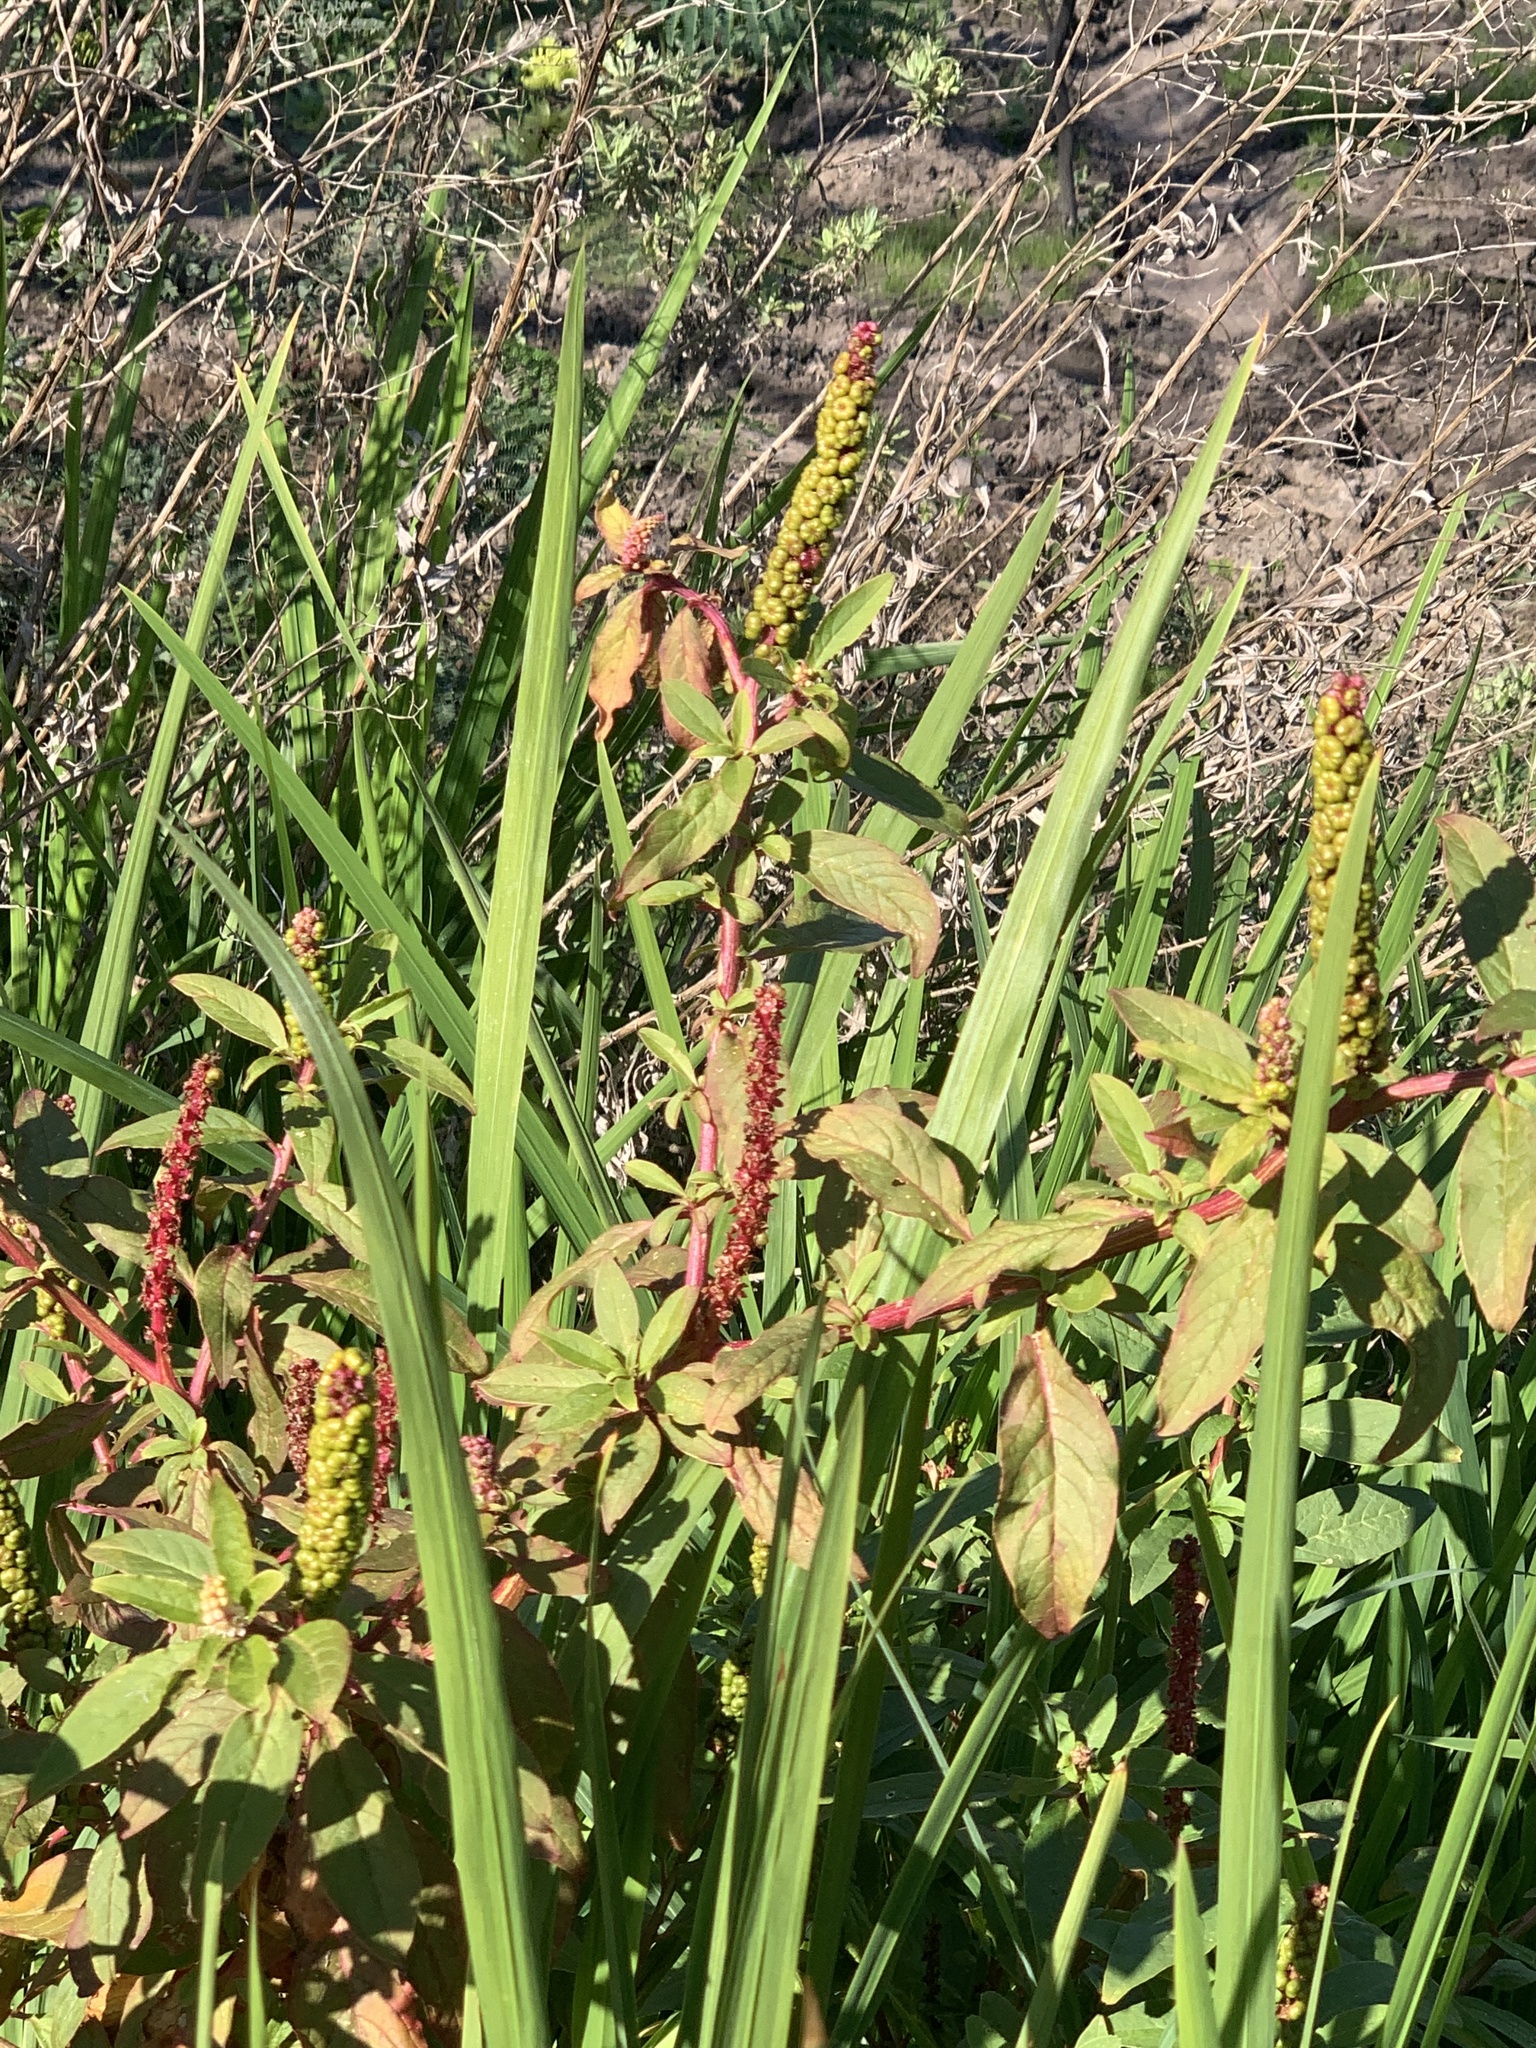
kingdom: Plantae
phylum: Tracheophyta
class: Magnoliopsida
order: Caryophyllales
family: Phytolaccaceae
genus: Phytolacca
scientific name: Phytolacca icosandra
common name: Button pokeweed
